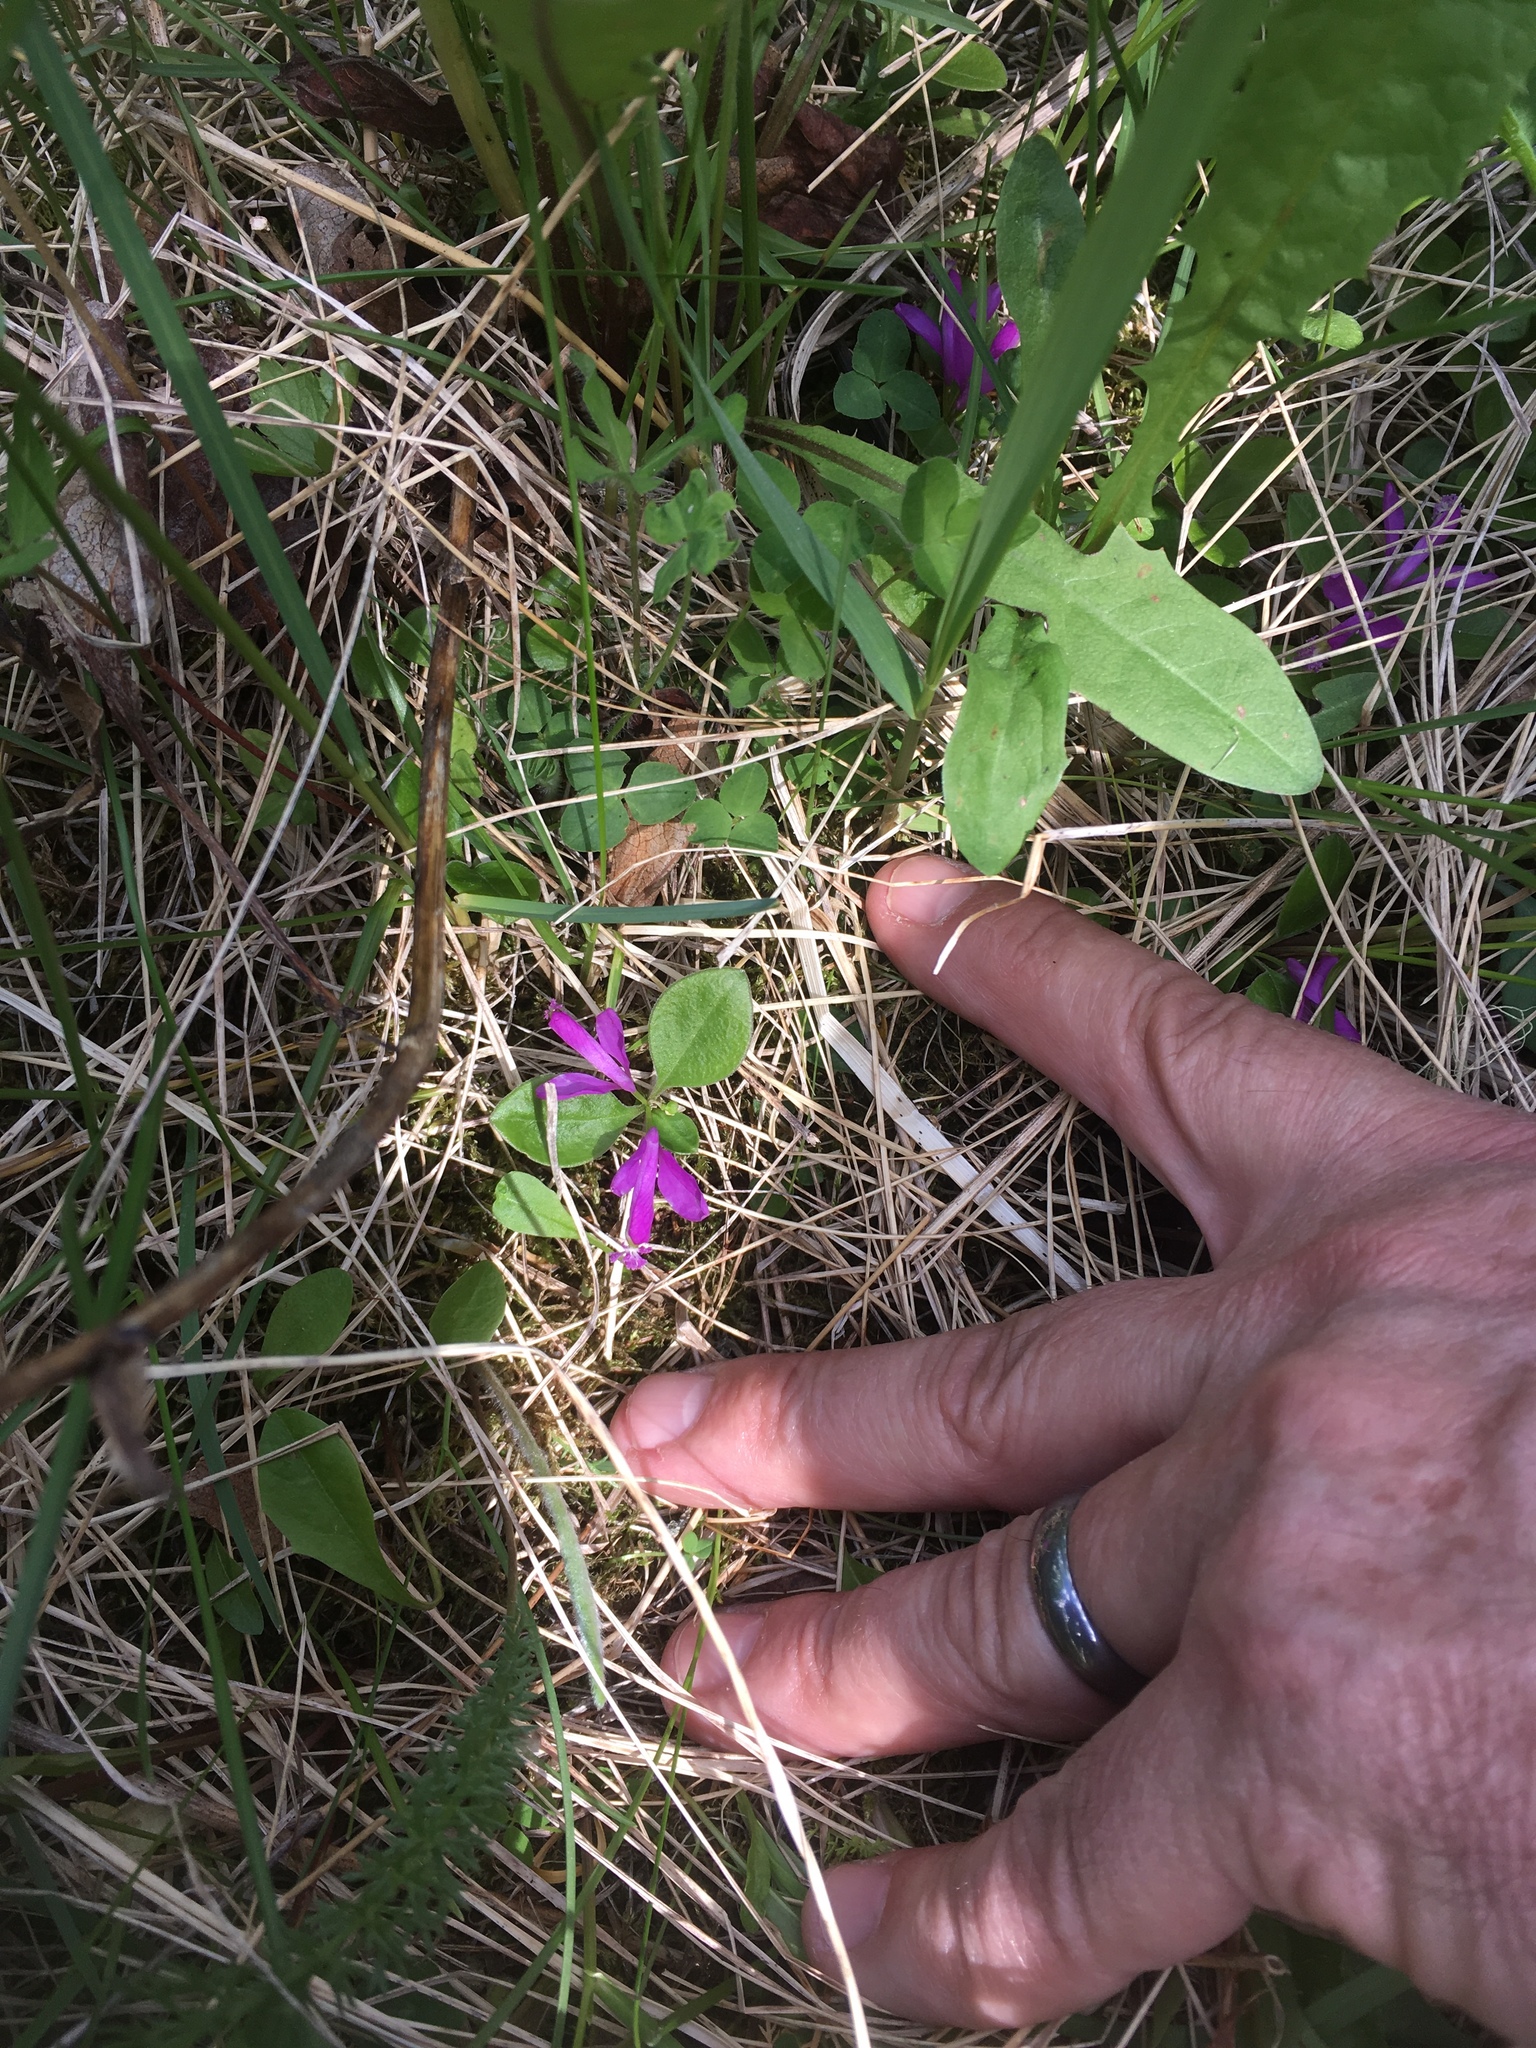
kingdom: Plantae
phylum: Tracheophyta
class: Magnoliopsida
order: Fabales
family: Polygalaceae
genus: Polygaloides
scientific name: Polygaloides paucifolia
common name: Bird-on-the-wing
